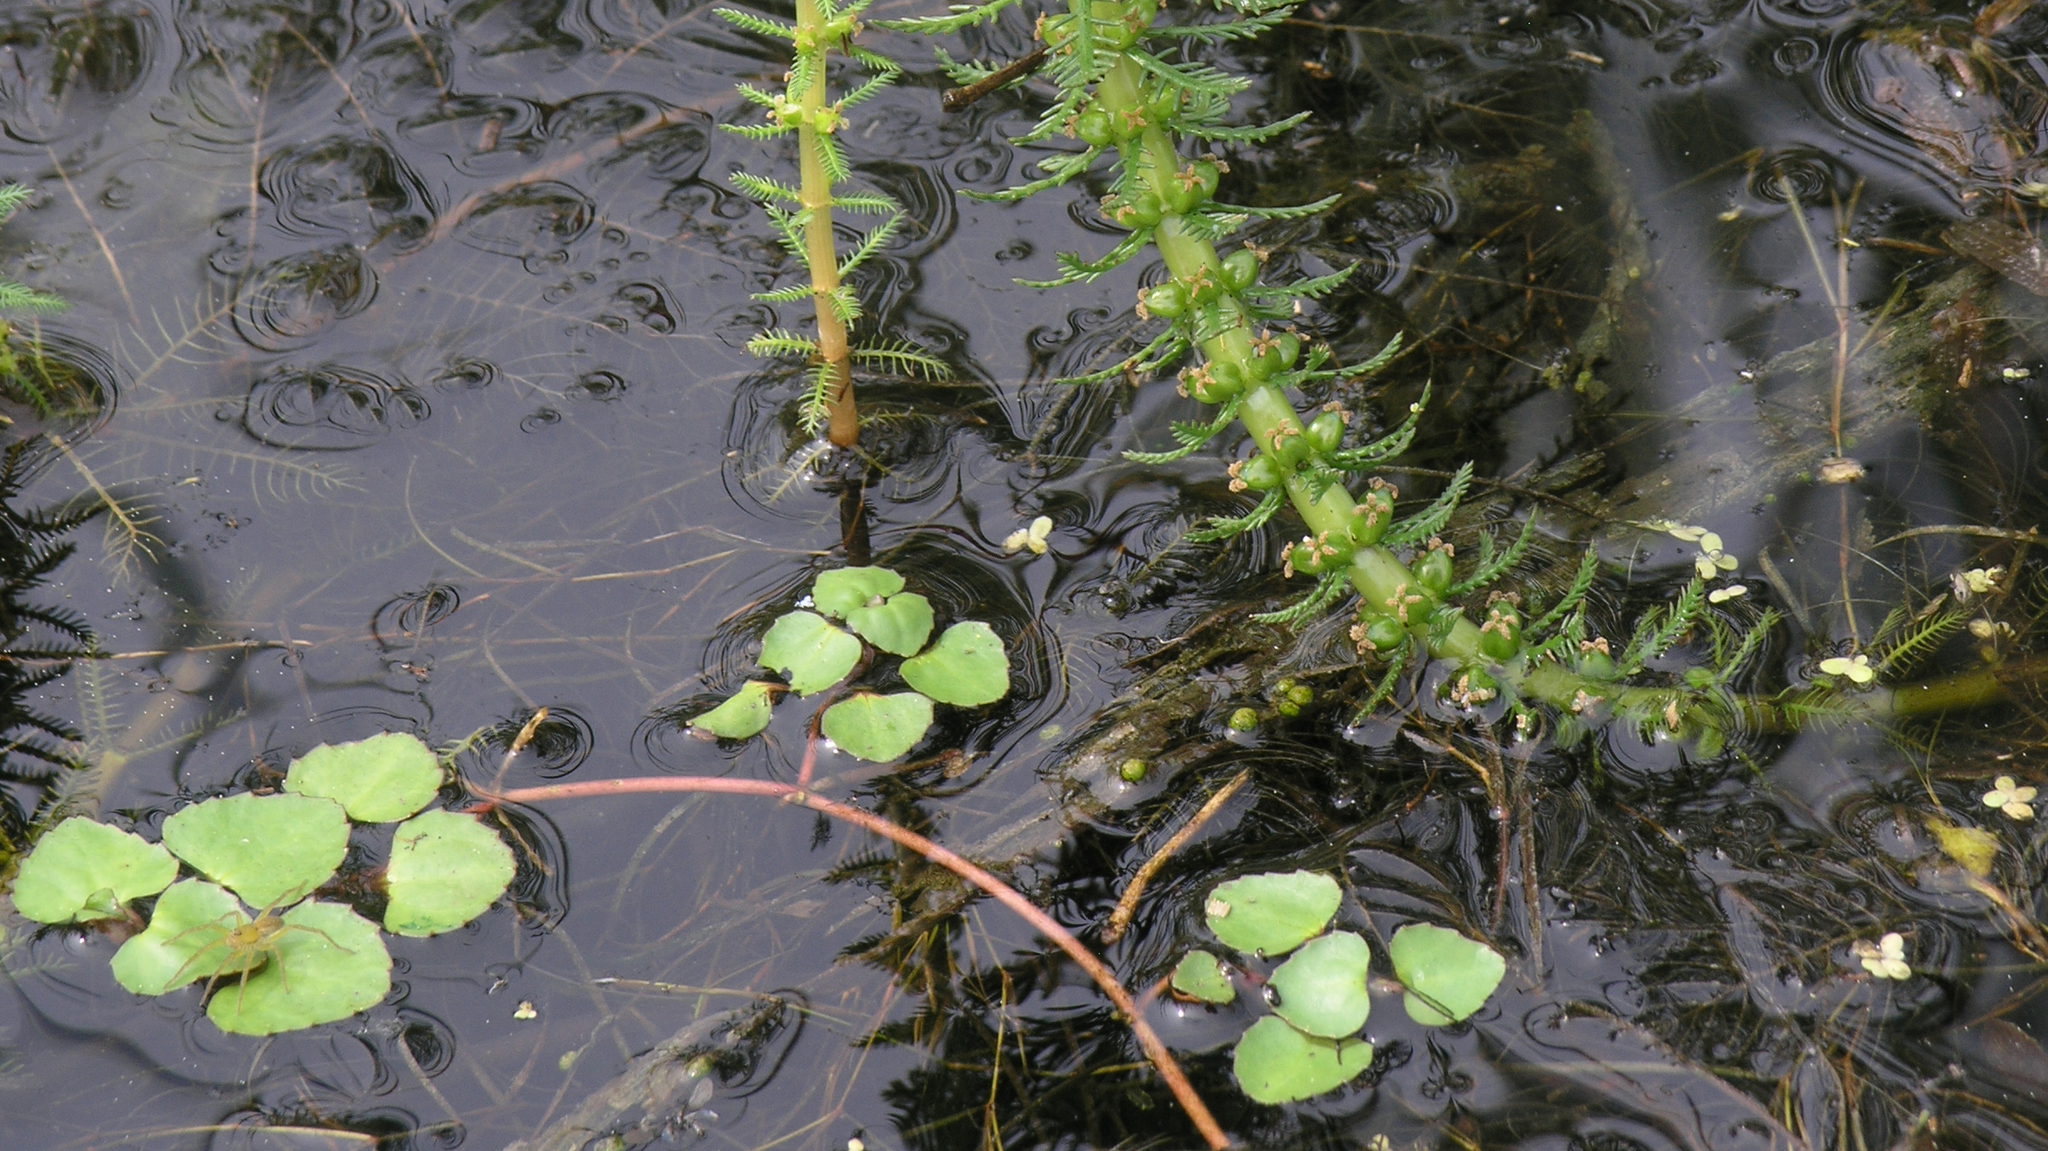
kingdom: Plantae
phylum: Tracheophyta
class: Magnoliopsida
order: Lamiales
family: Plantaginaceae
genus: Trapella
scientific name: Trapella sinensis
